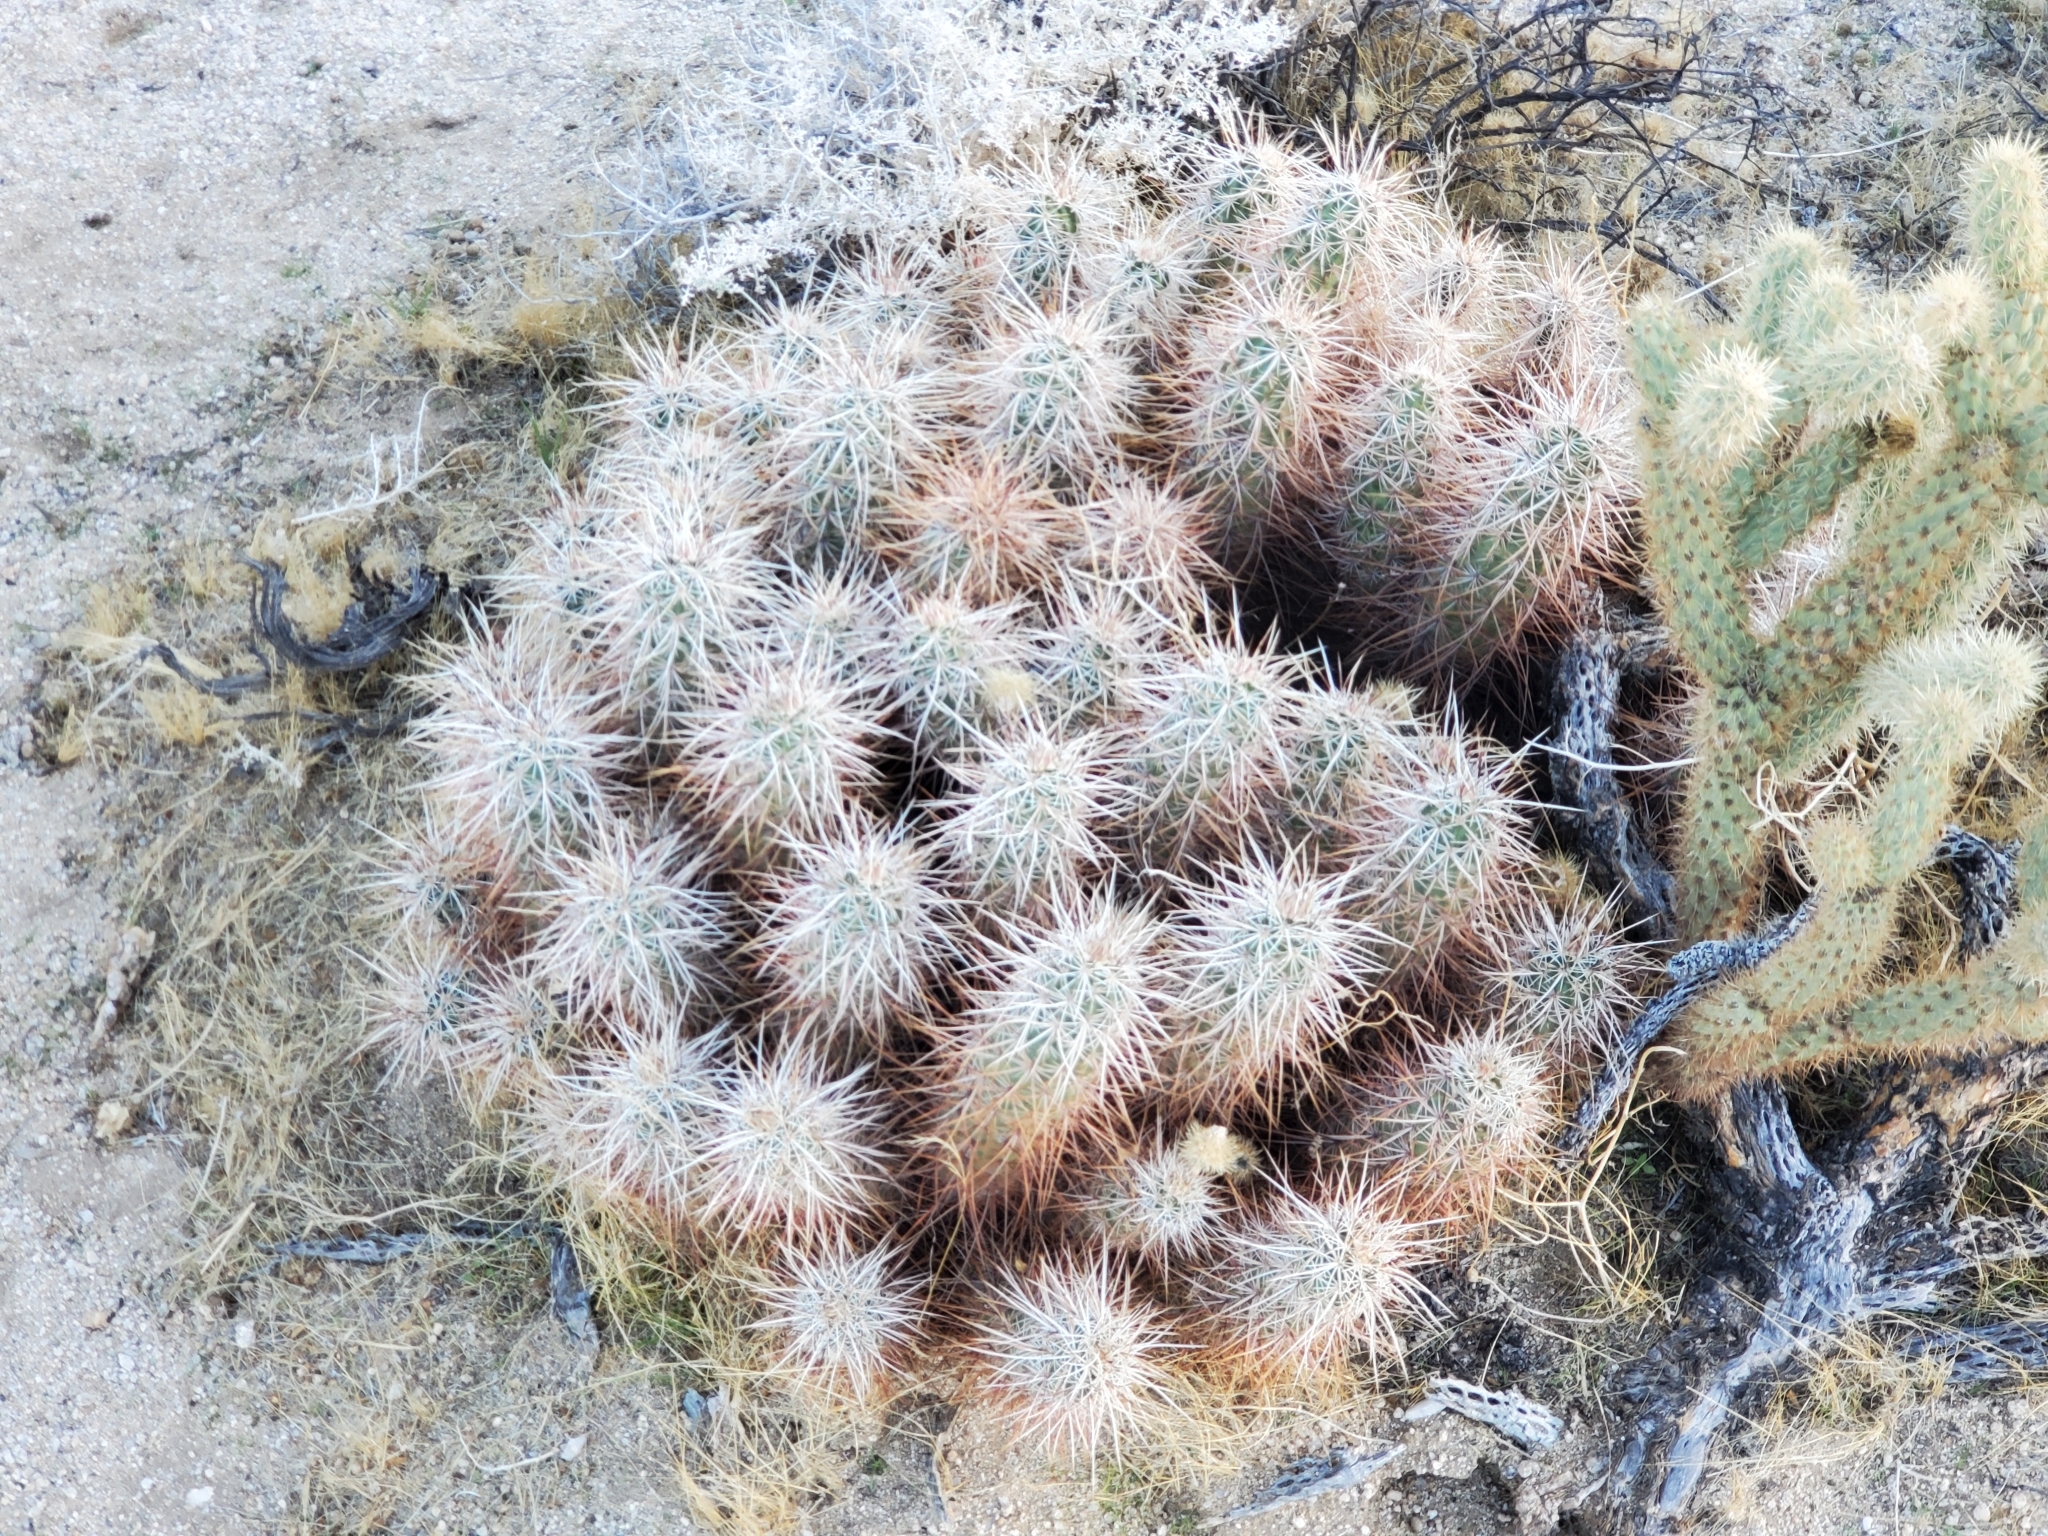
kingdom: Plantae
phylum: Tracheophyta
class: Magnoliopsida
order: Caryophyllales
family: Cactaceae
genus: Echinocereus
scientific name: Echinocereus engelmannii
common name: Engelmann's hedgehog cactus
